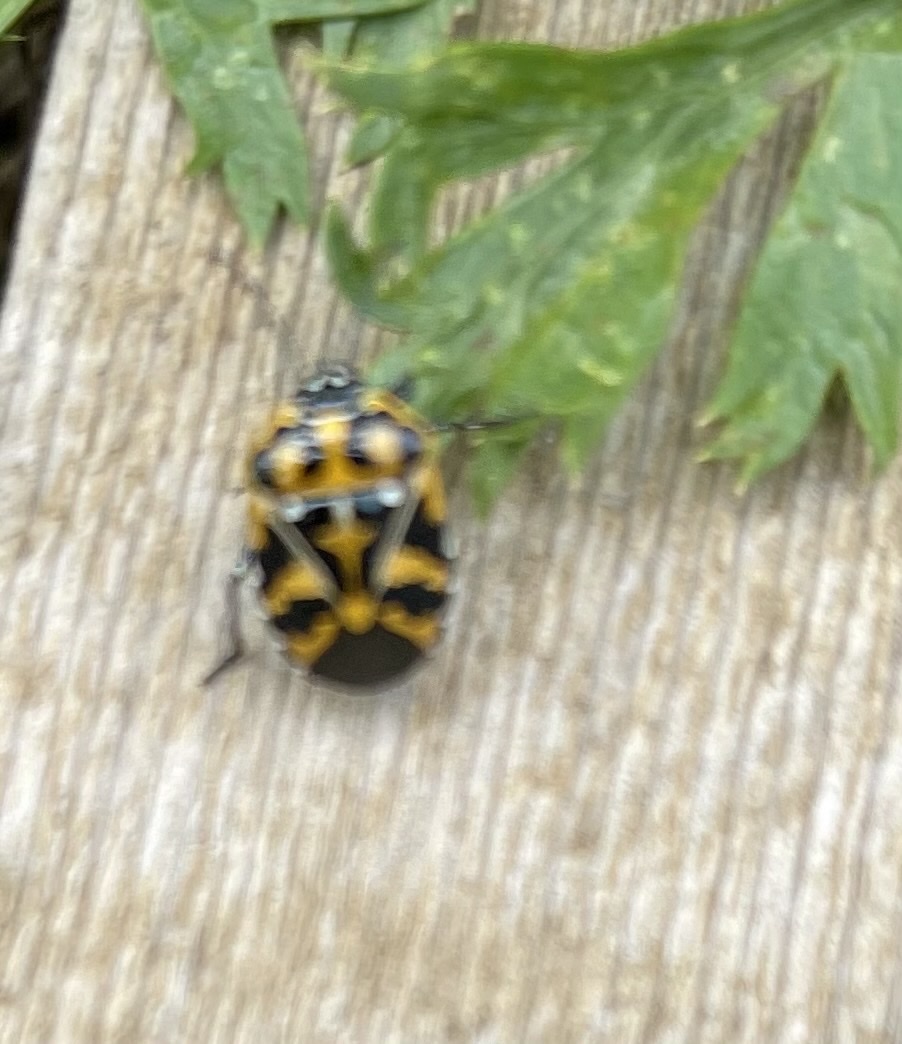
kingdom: Animalia
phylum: Arthropoda
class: Insecta
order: Hemiptera
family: Pentatomidae
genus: Murgantia
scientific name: Murgantia histrionica
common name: Harlequin bug
